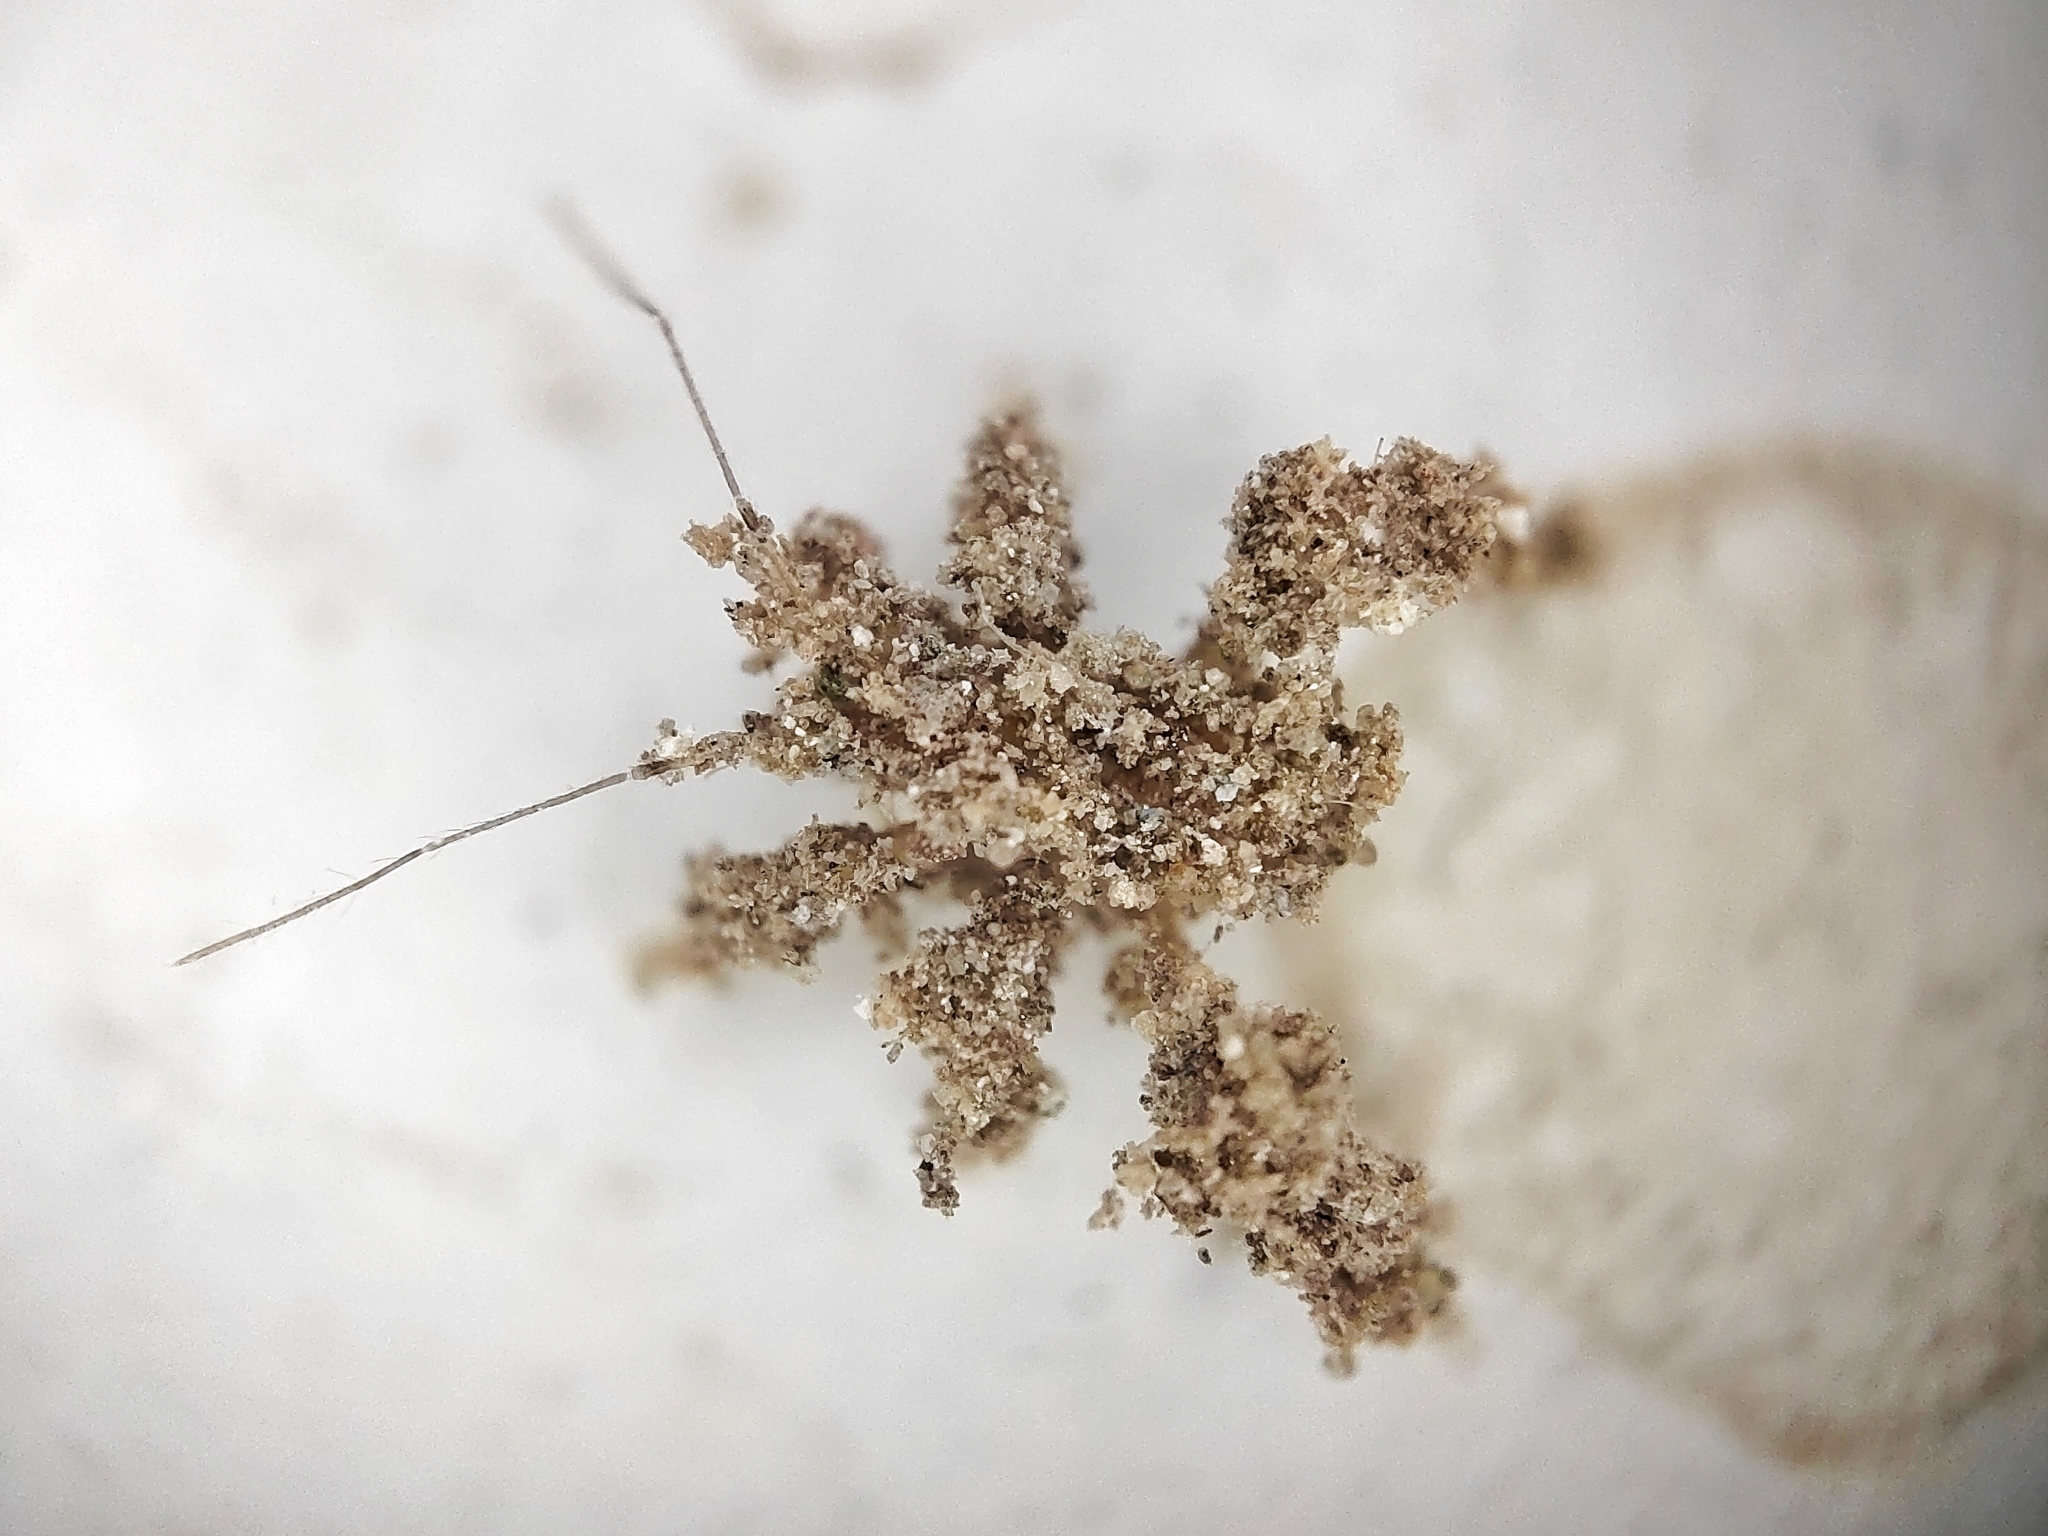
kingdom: Animalia
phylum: Arthropoda
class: Insecta
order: Hemiptera
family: Reduviidae
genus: Reduvius
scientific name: Reduvius personatus
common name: Masked hunter
